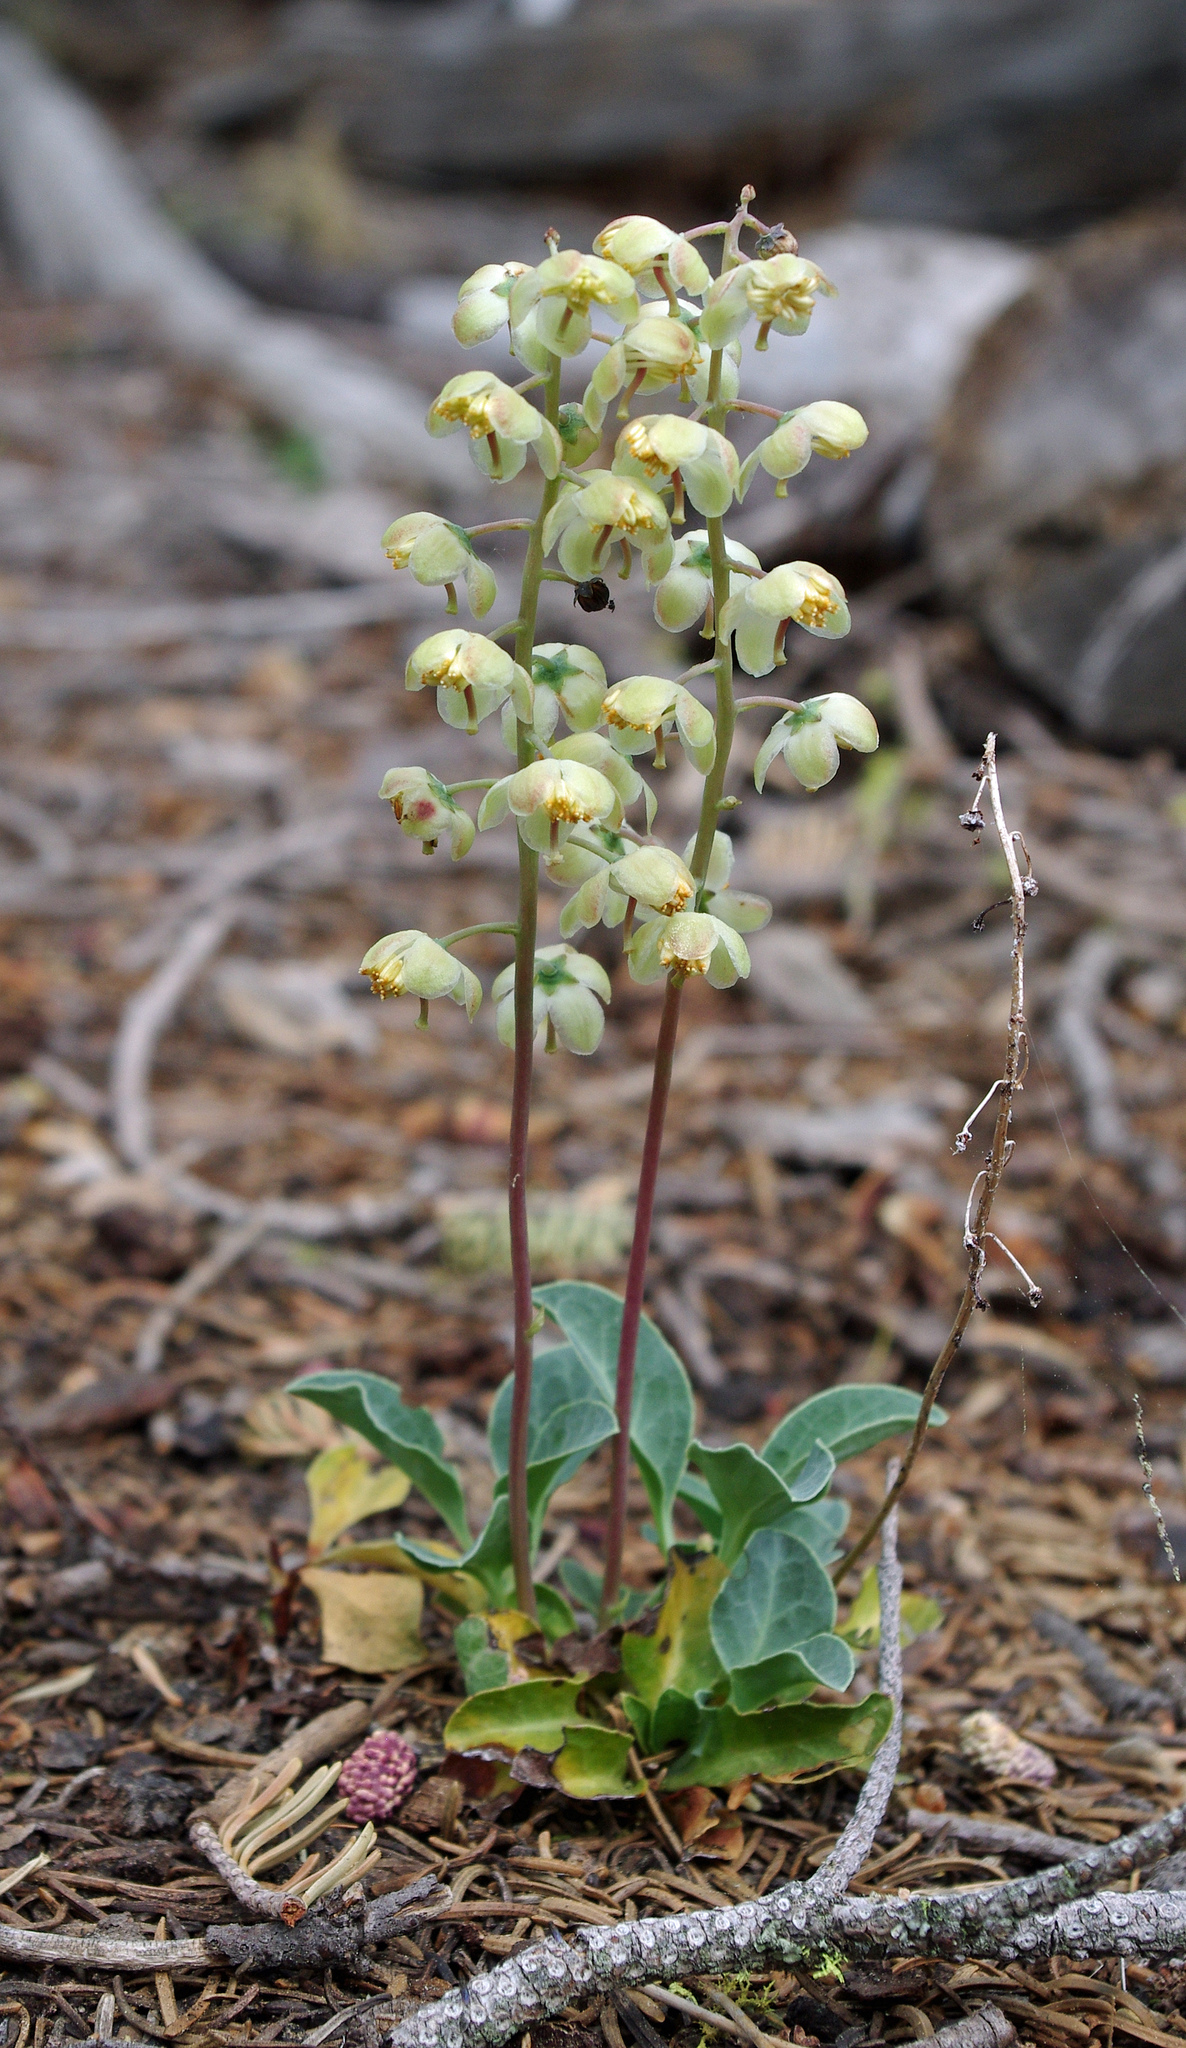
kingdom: Plantae
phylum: Tracheophyta
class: Magnoliopsida
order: Ericales
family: Ericaceae
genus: Pyrola
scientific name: Pyrola dentata
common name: Tooth-leaved wintergreen
